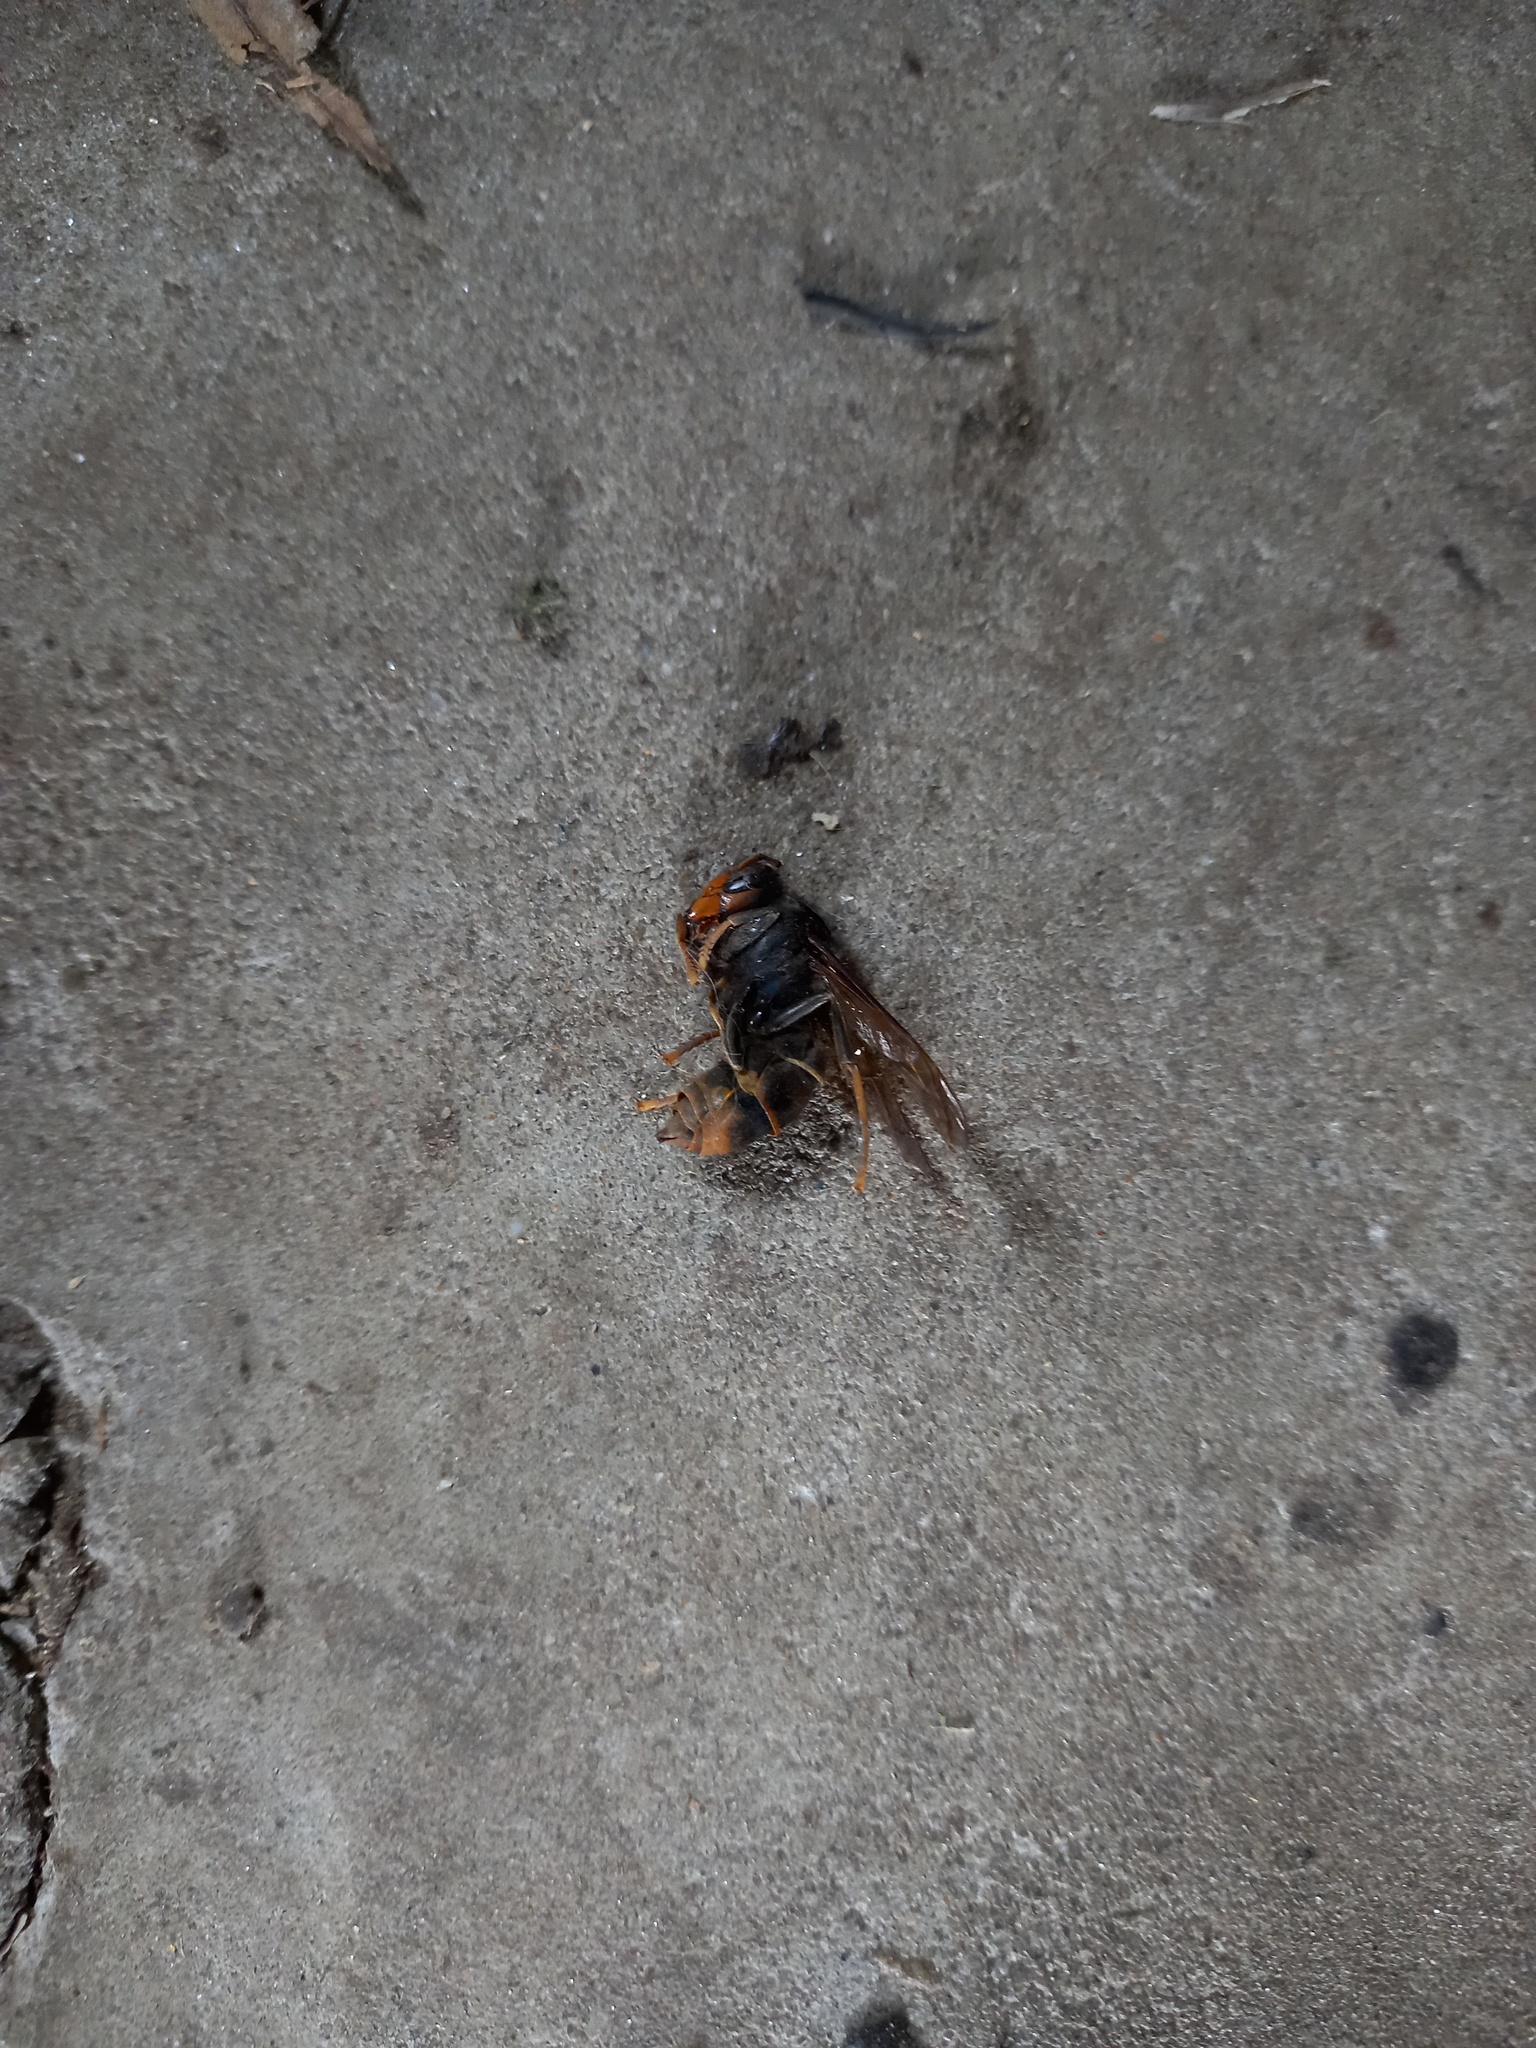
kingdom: Animalia
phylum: Arthropoda
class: Insecta
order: Hymenoptera
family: Vespidae
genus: Vespa
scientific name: Vespa velutina
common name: Asian hornet
